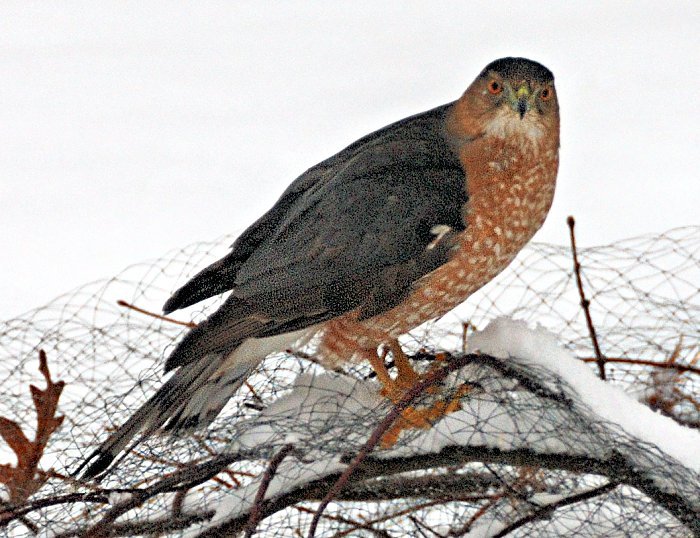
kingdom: Animalia
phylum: Chordata
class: Aves
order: Accipitriformes
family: Accipitridae
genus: Accipiter
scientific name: Accipiter cooperii
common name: Cooper's hawk
